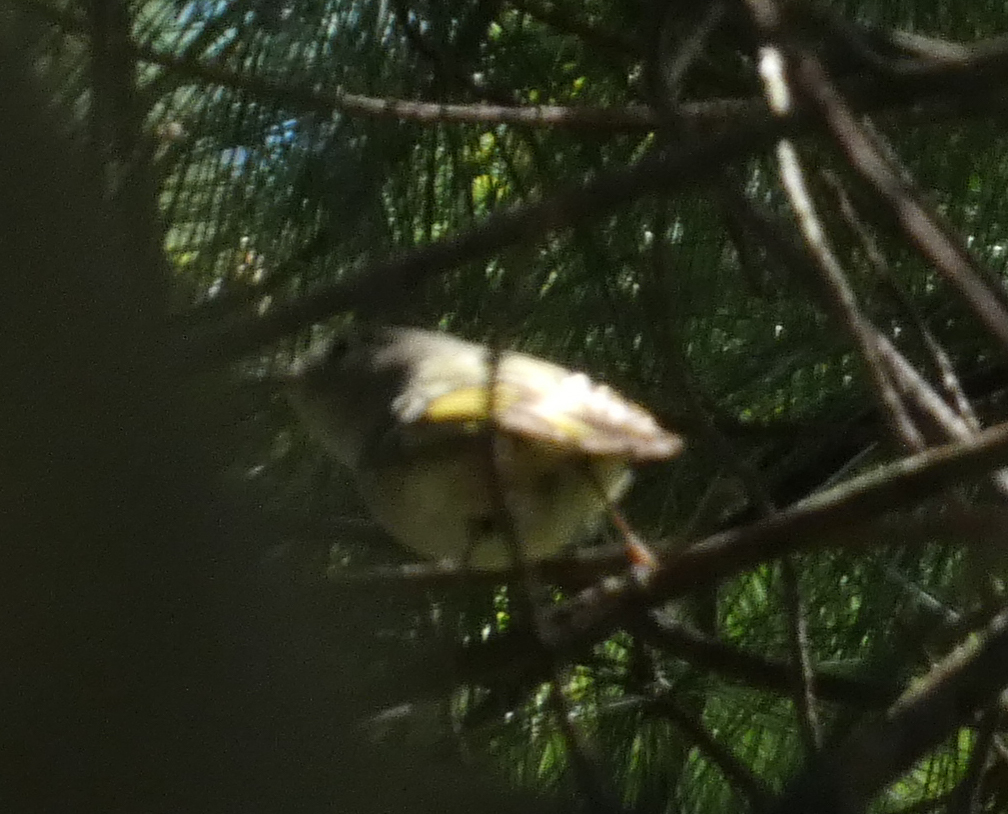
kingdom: Animalia
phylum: Chordata
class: Aves
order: Passeriformes
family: Regulidae
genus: Regulus
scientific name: Regulus calendula
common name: Ruby-crowned kinglet
